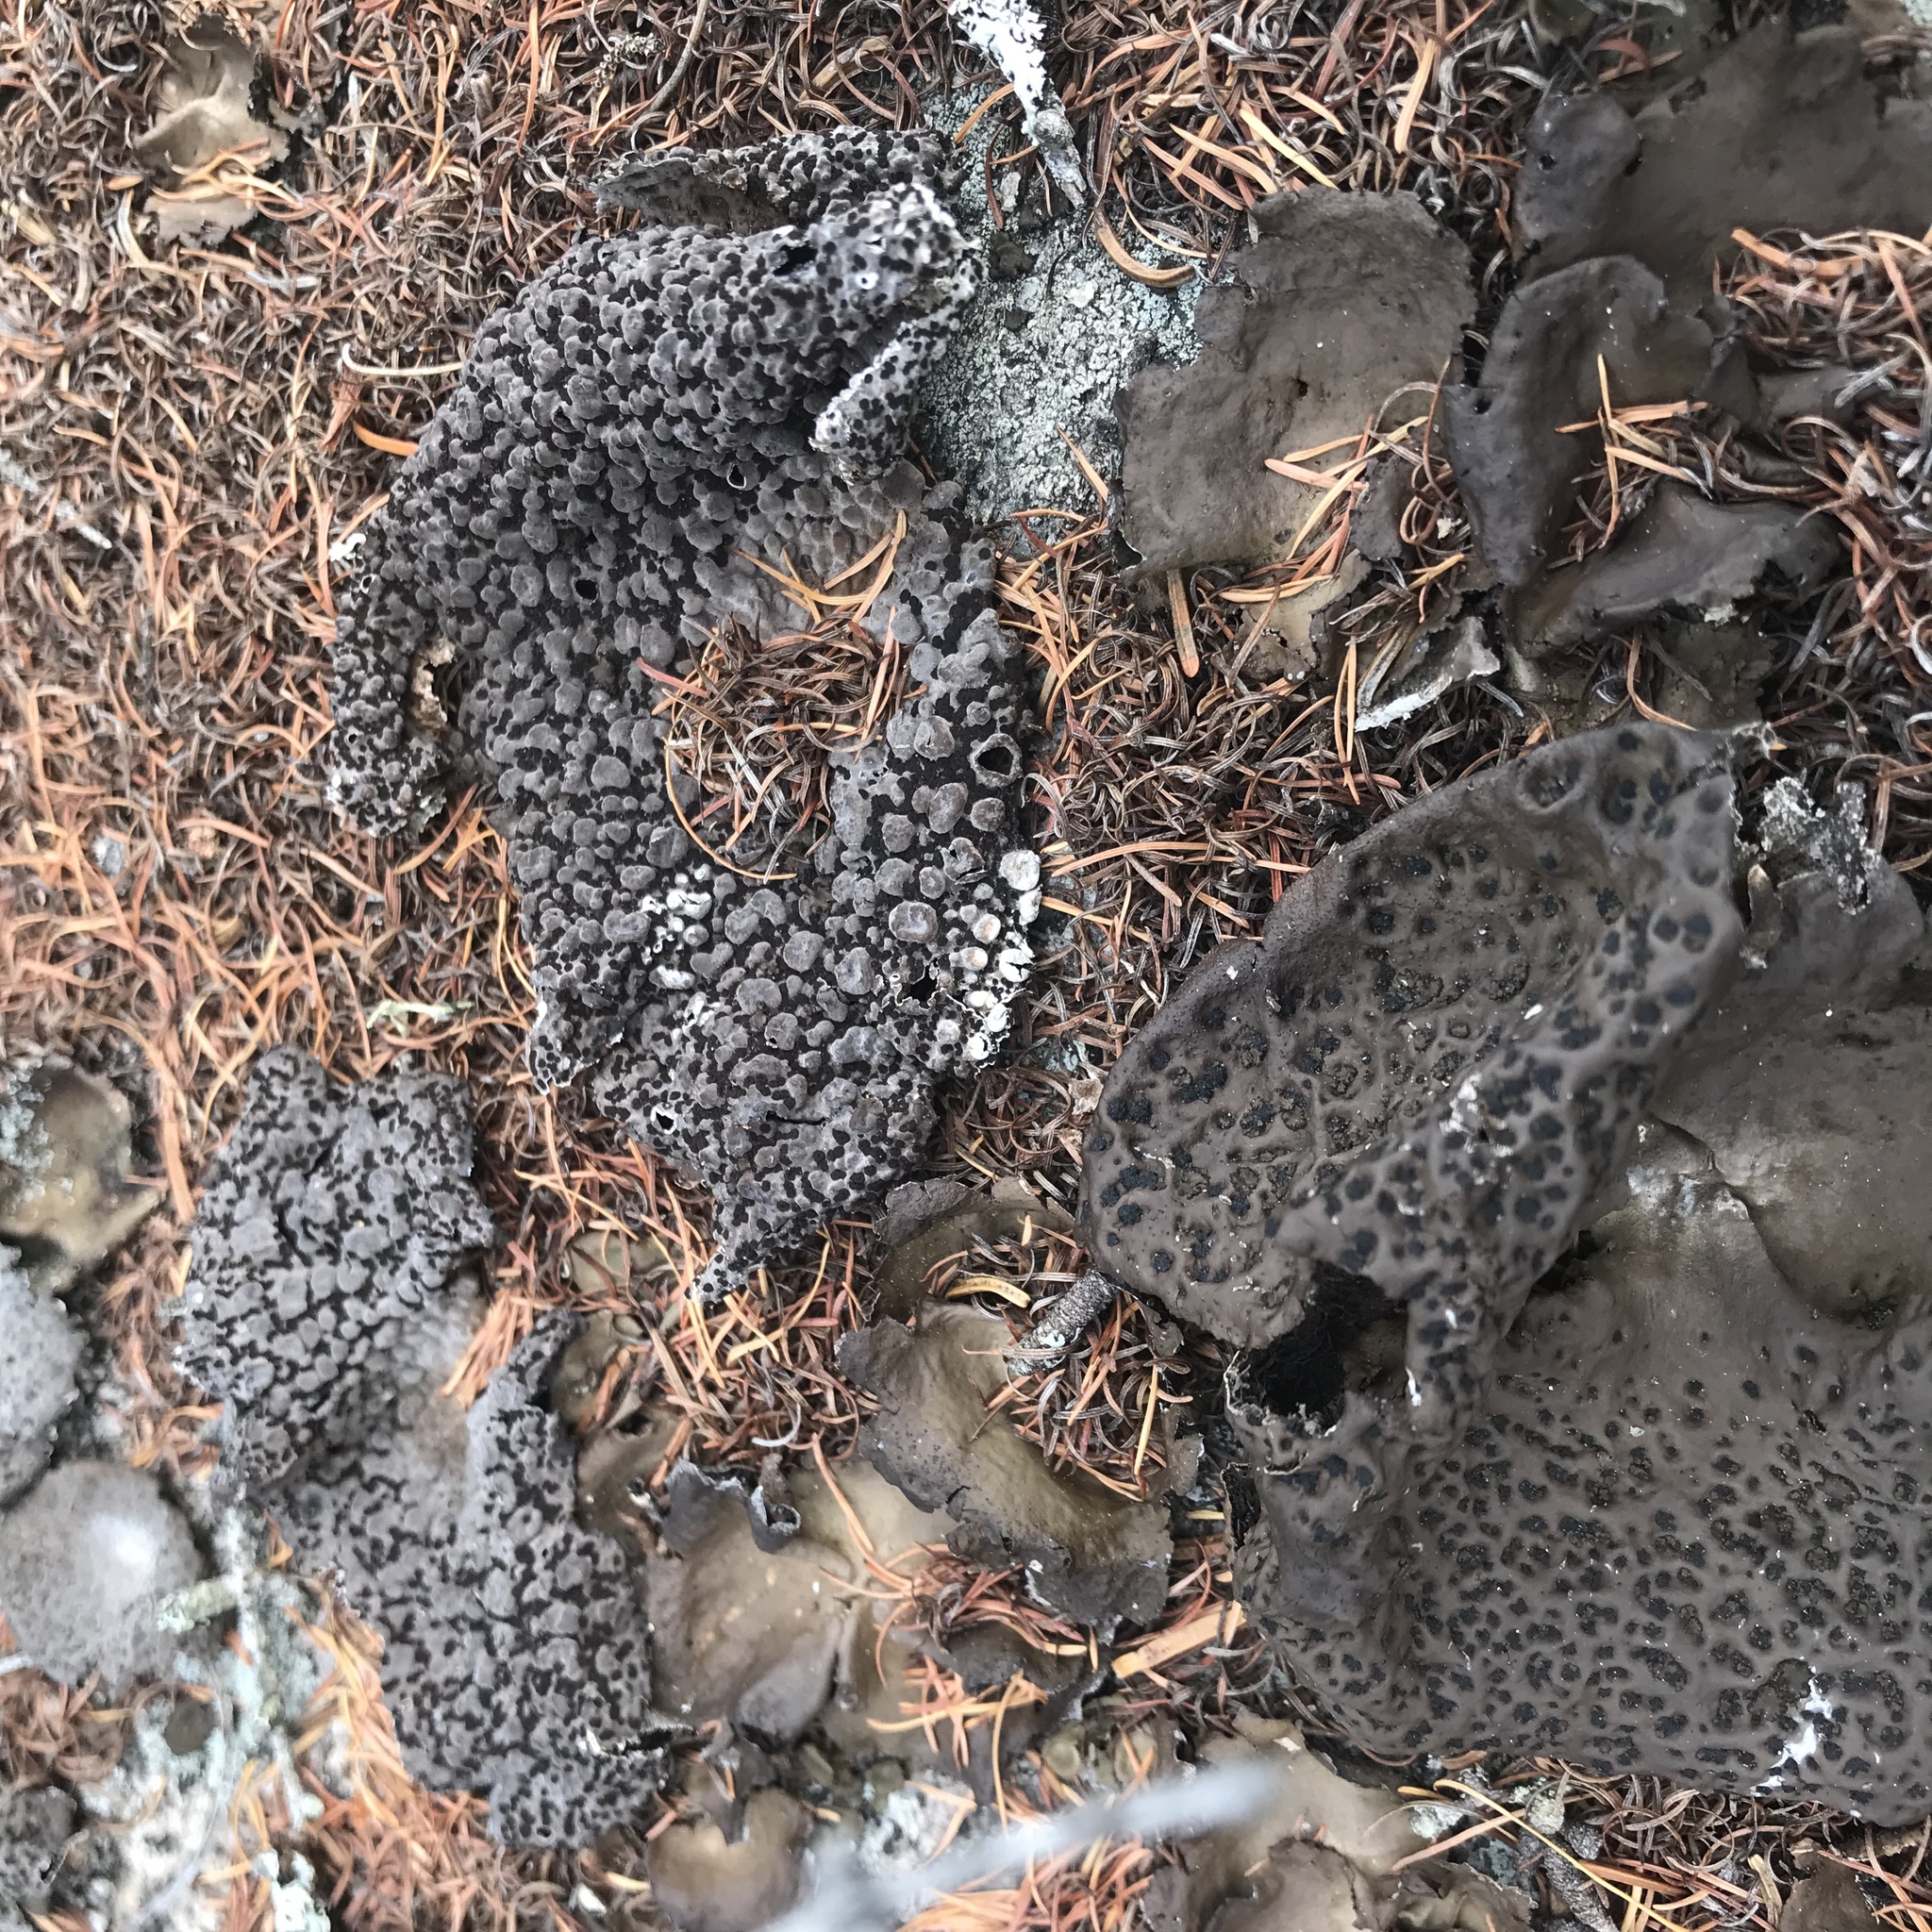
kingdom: Fungi
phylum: Ascomycota
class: Lecanoromycetes
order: Umbilicariales
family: Umbilicariaceae
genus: Umbilicaria
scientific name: Umbilicaria muhlenbergii
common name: Lesser rocktripe
